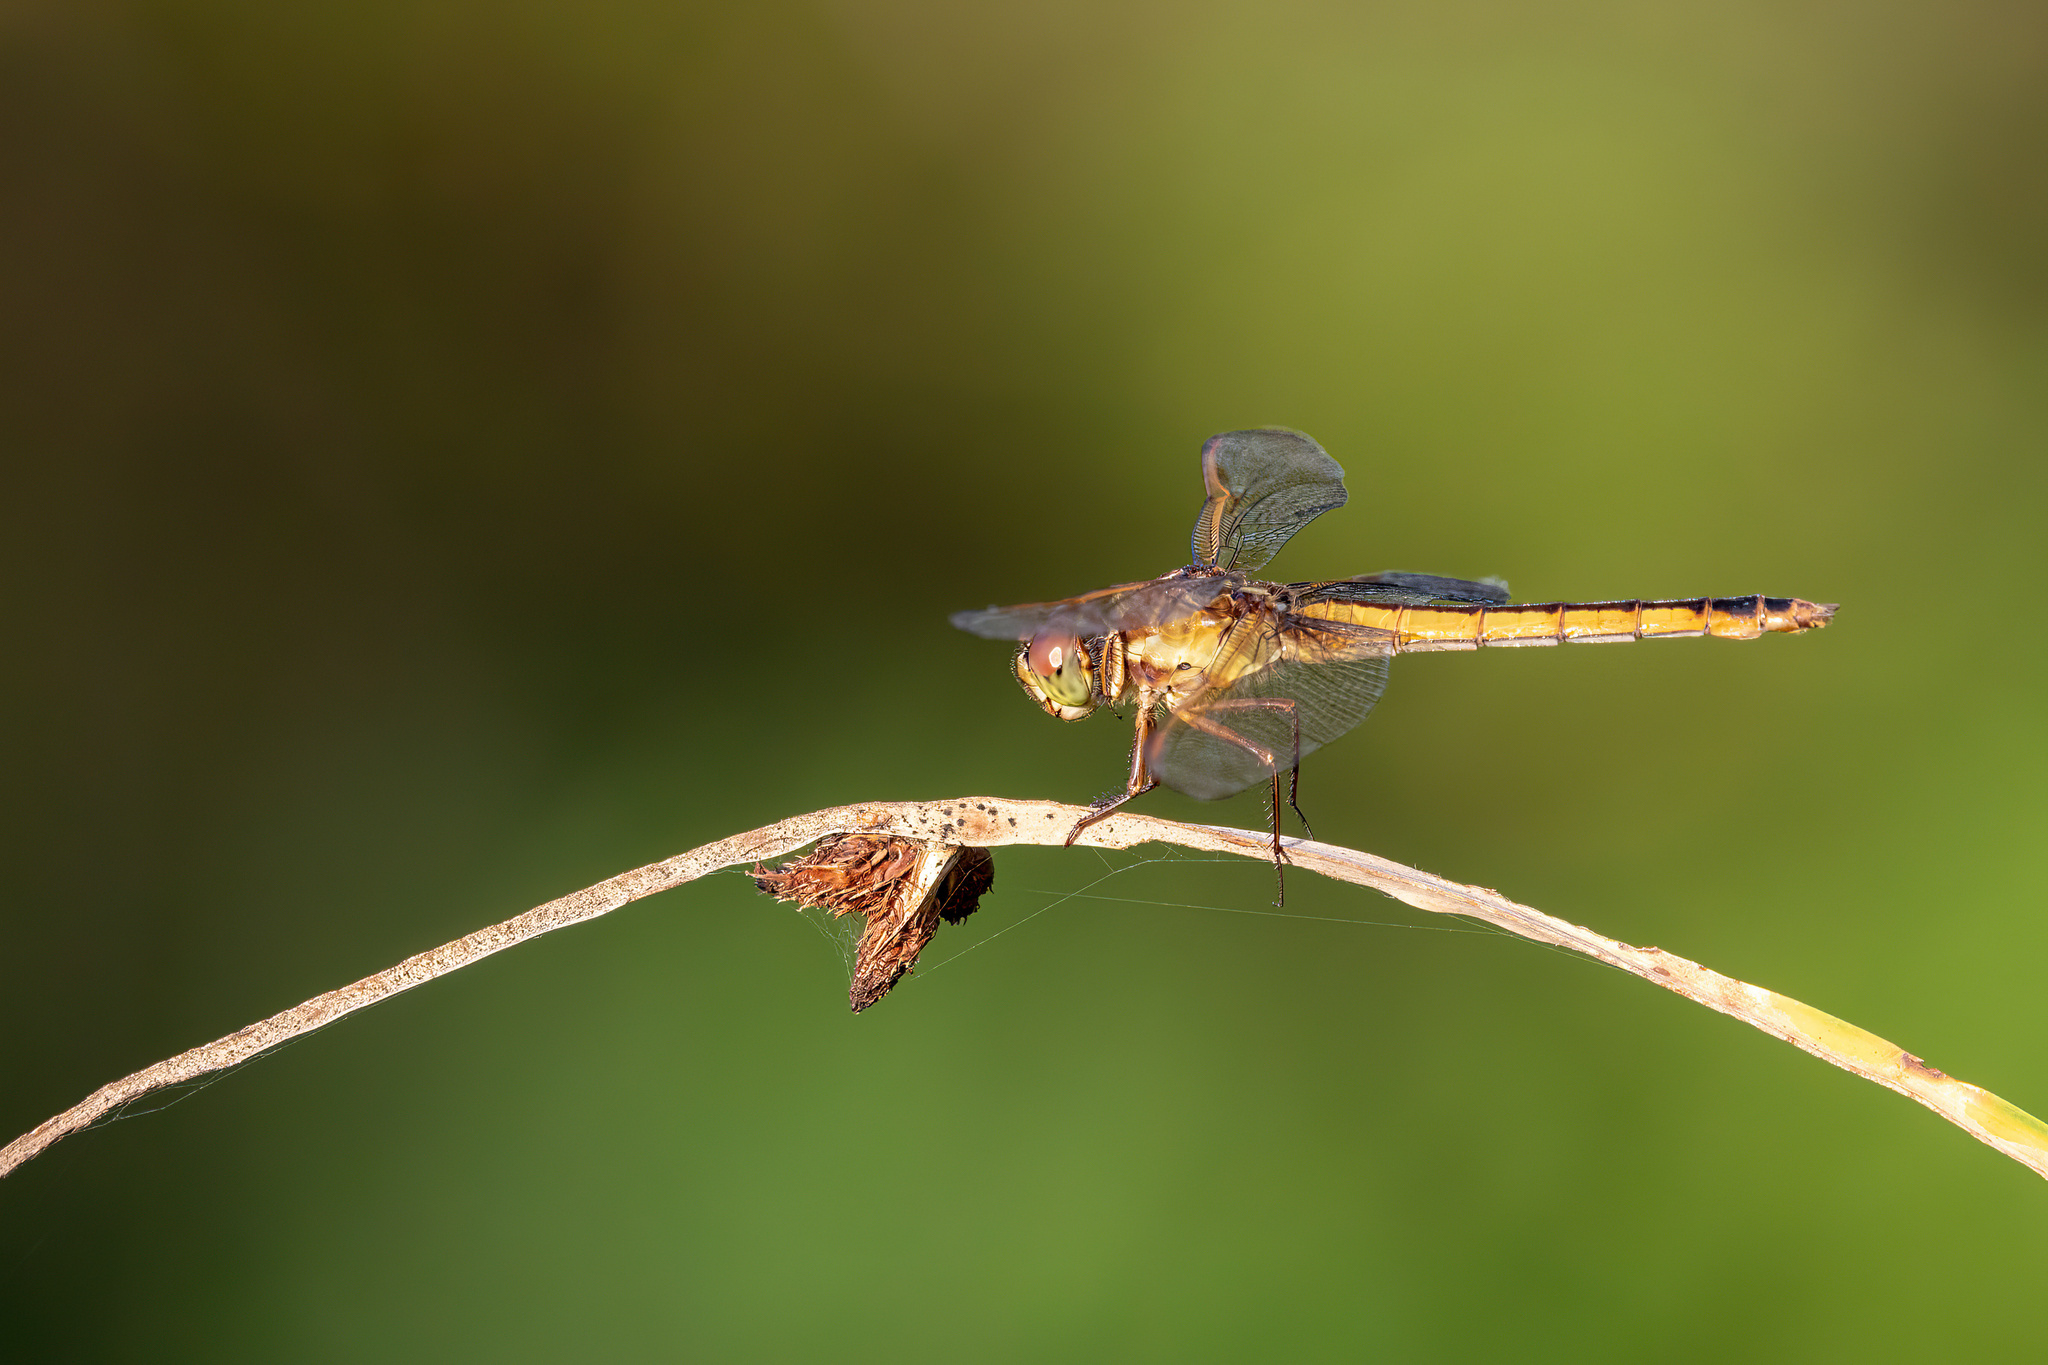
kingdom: Animalia
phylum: Arthropoda
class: Insecta
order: Odonata
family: Libellulidae
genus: Libellula
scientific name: Libellula needhami
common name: Needham's skimmer
